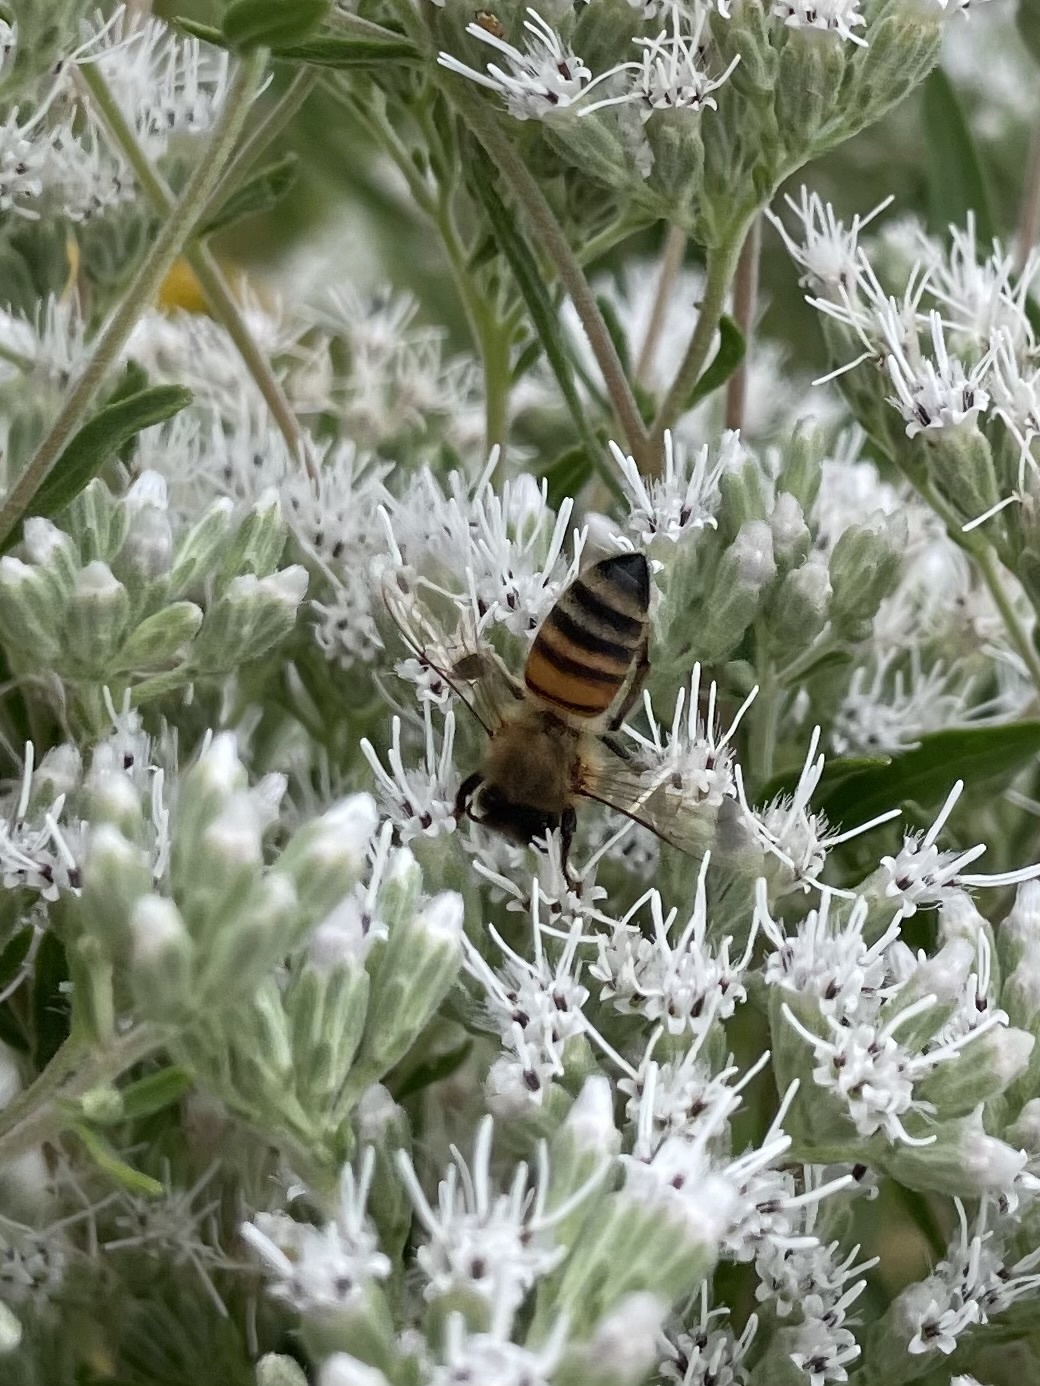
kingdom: Animalia
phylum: Arthropoda
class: Insecta
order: Hymenoptera
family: Apidae
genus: Apis
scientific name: Apis mellifera
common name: Honey bee
